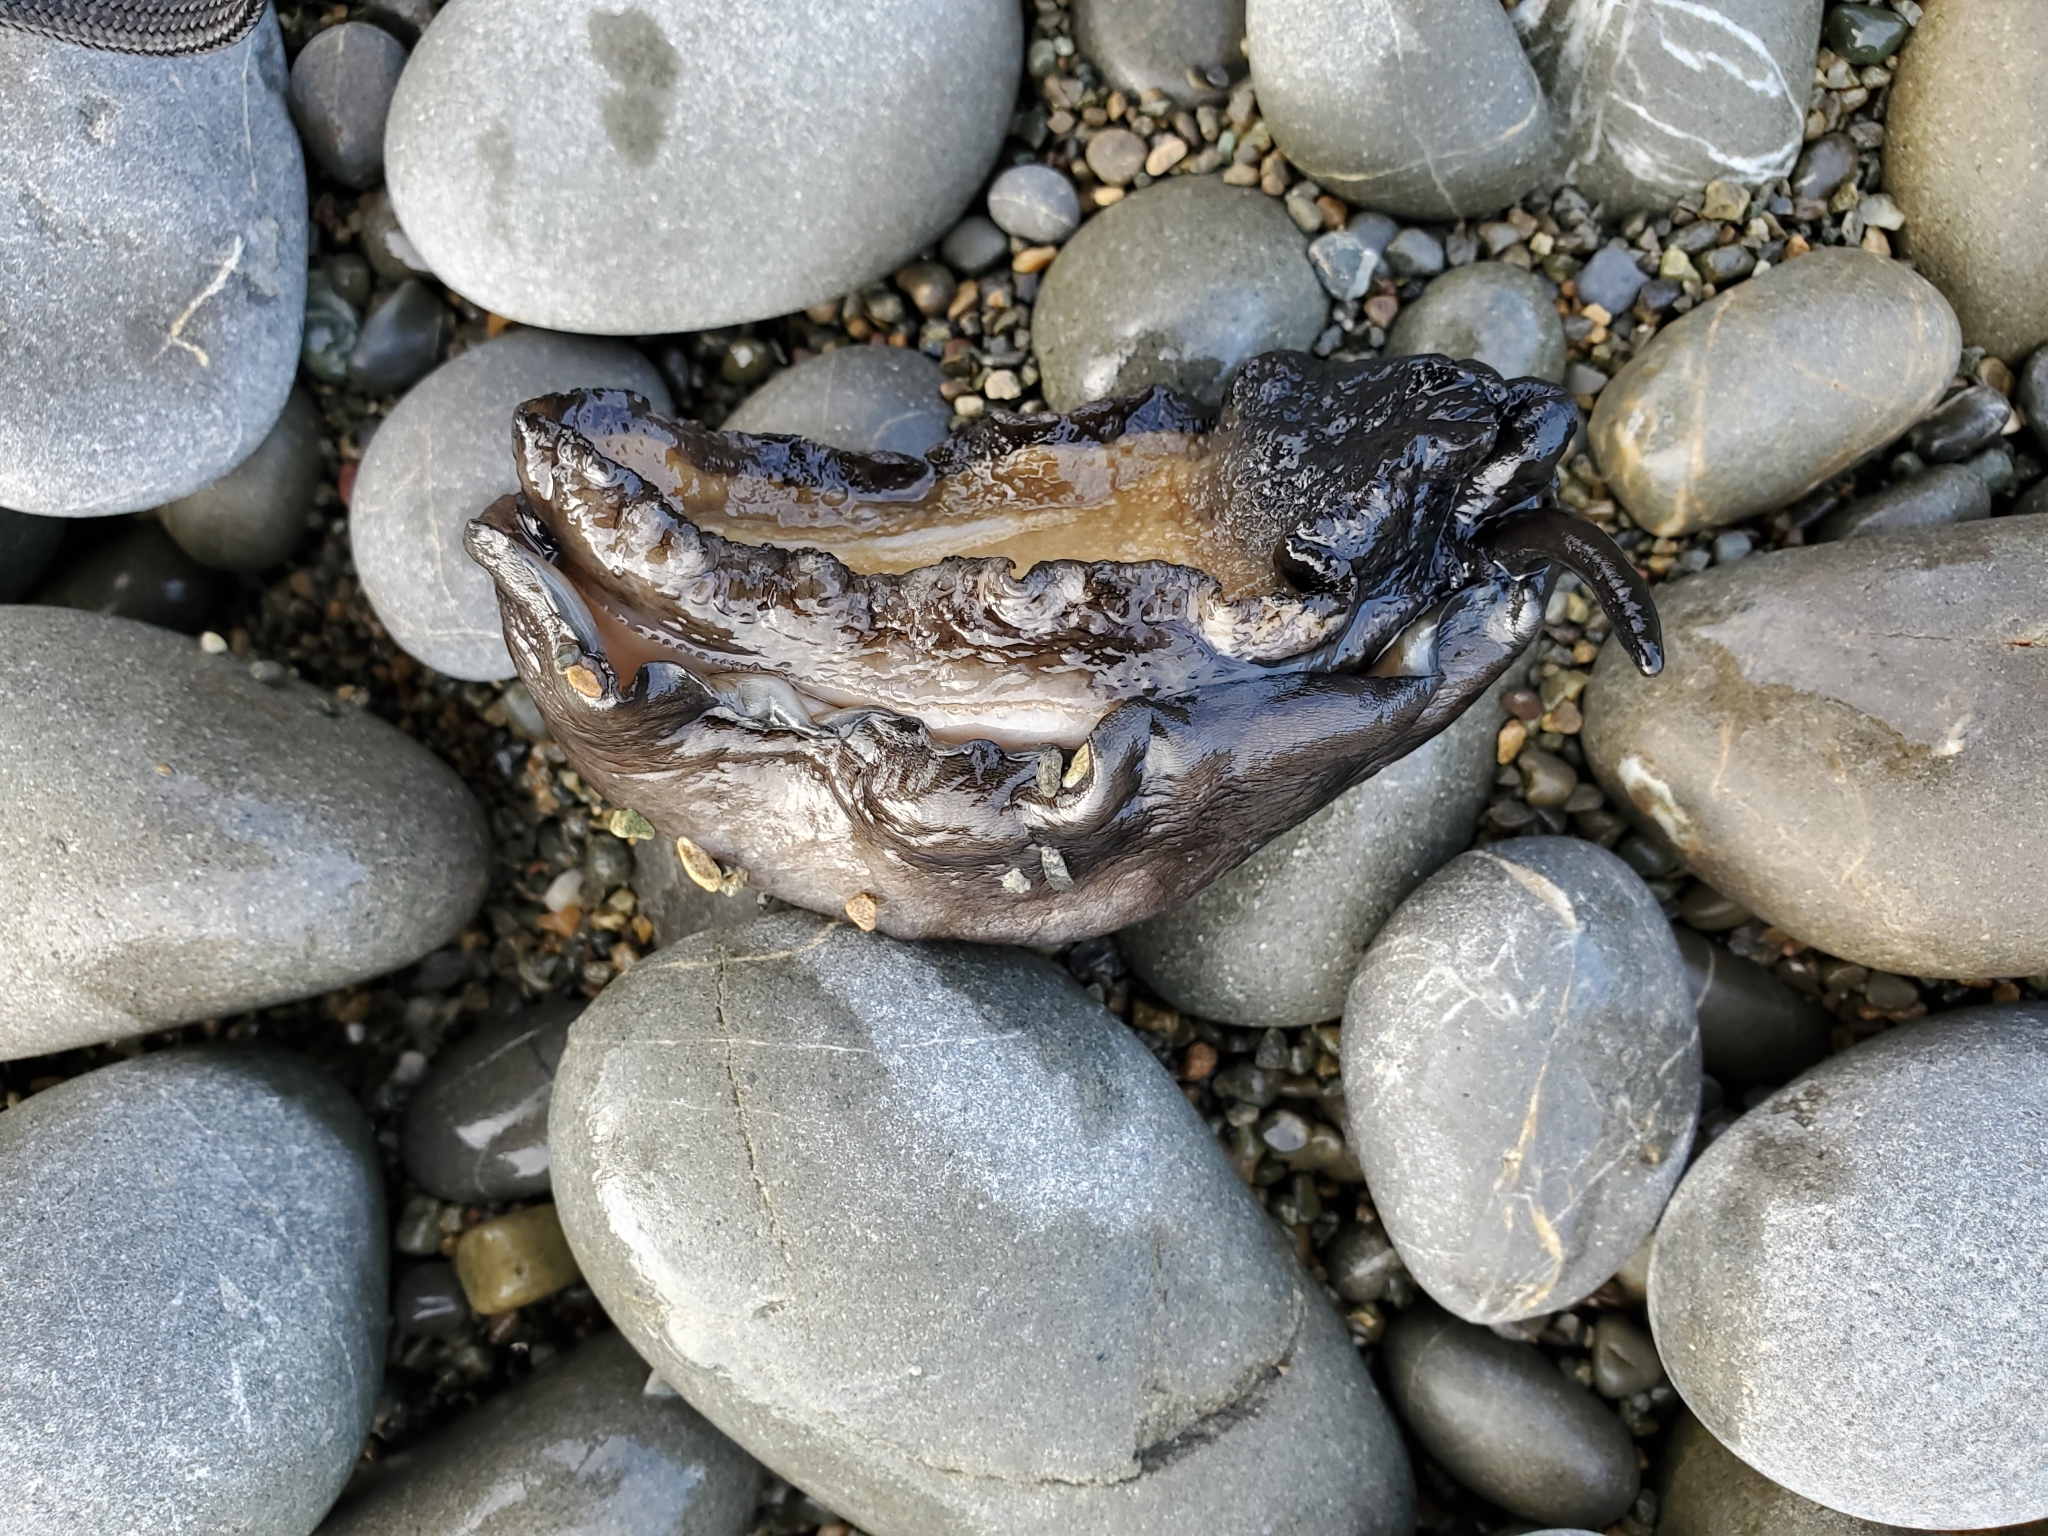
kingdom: Animalia
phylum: Mollusca
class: Gastropoda
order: Lepetellida
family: Fissurellidae
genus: Scutus
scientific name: Scutus breviculus
